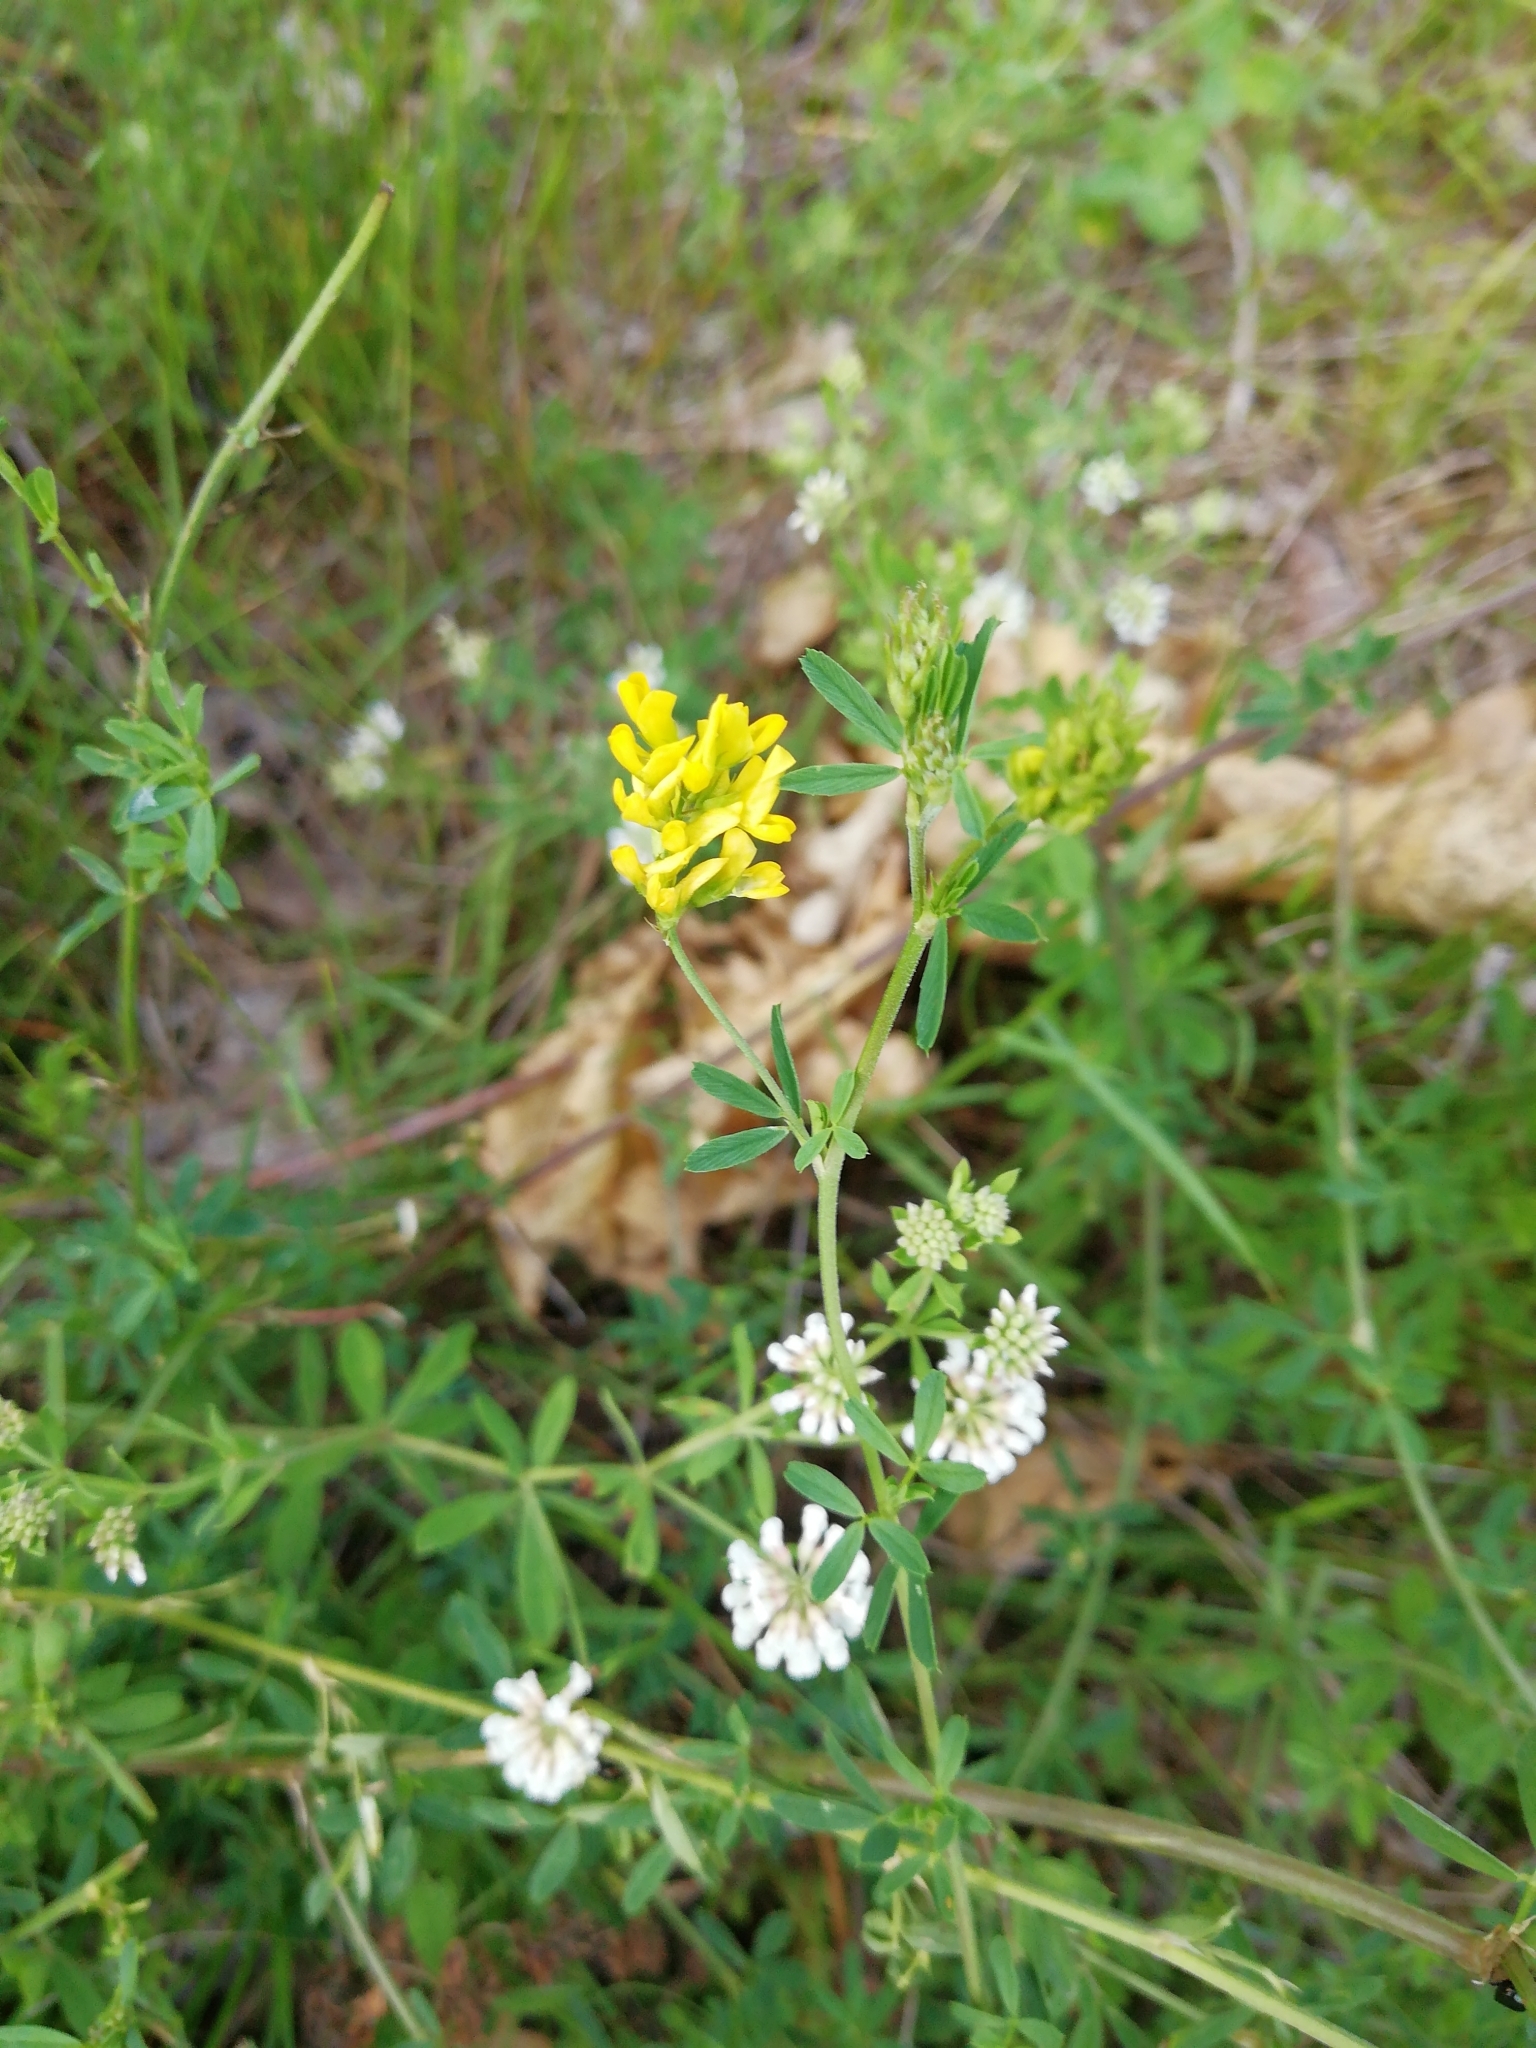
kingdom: Plantae
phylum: Tracheophyta
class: Magnoliopsida
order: Fabales
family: Fabaceae
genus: Medicago
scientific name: Medicago falcata
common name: Sickle medick
